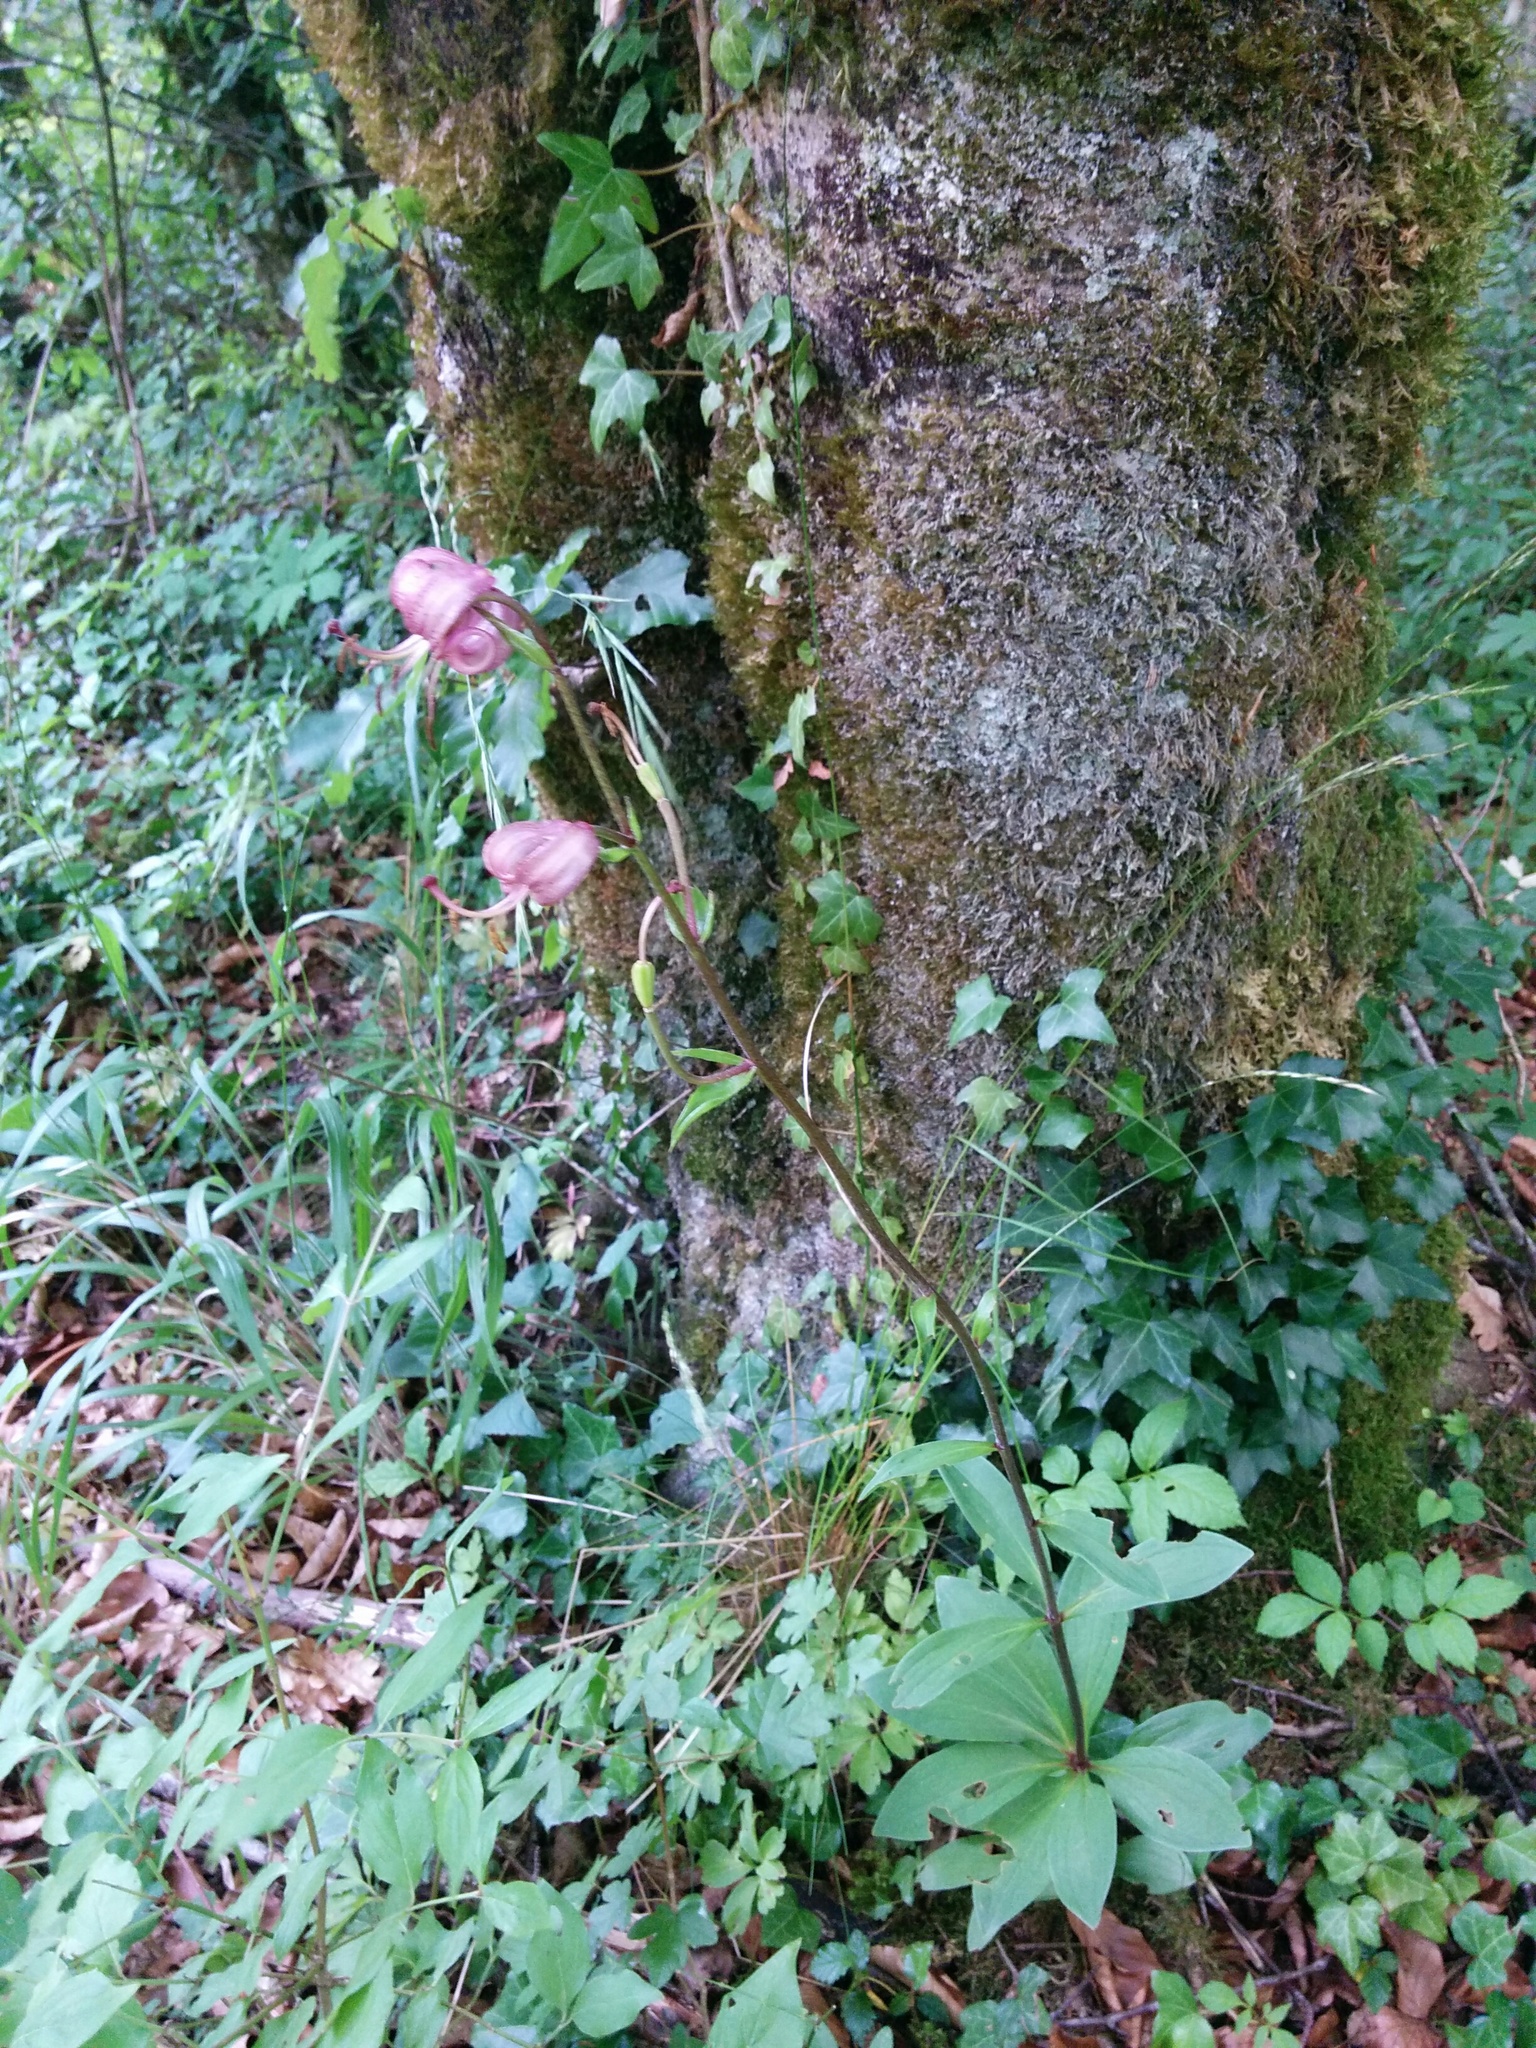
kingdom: Plantae
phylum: Tracheophyta
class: Liliopsida
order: Liliales
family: Liliaceae
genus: Lilium
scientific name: Lilium martagon
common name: Martagon lily
